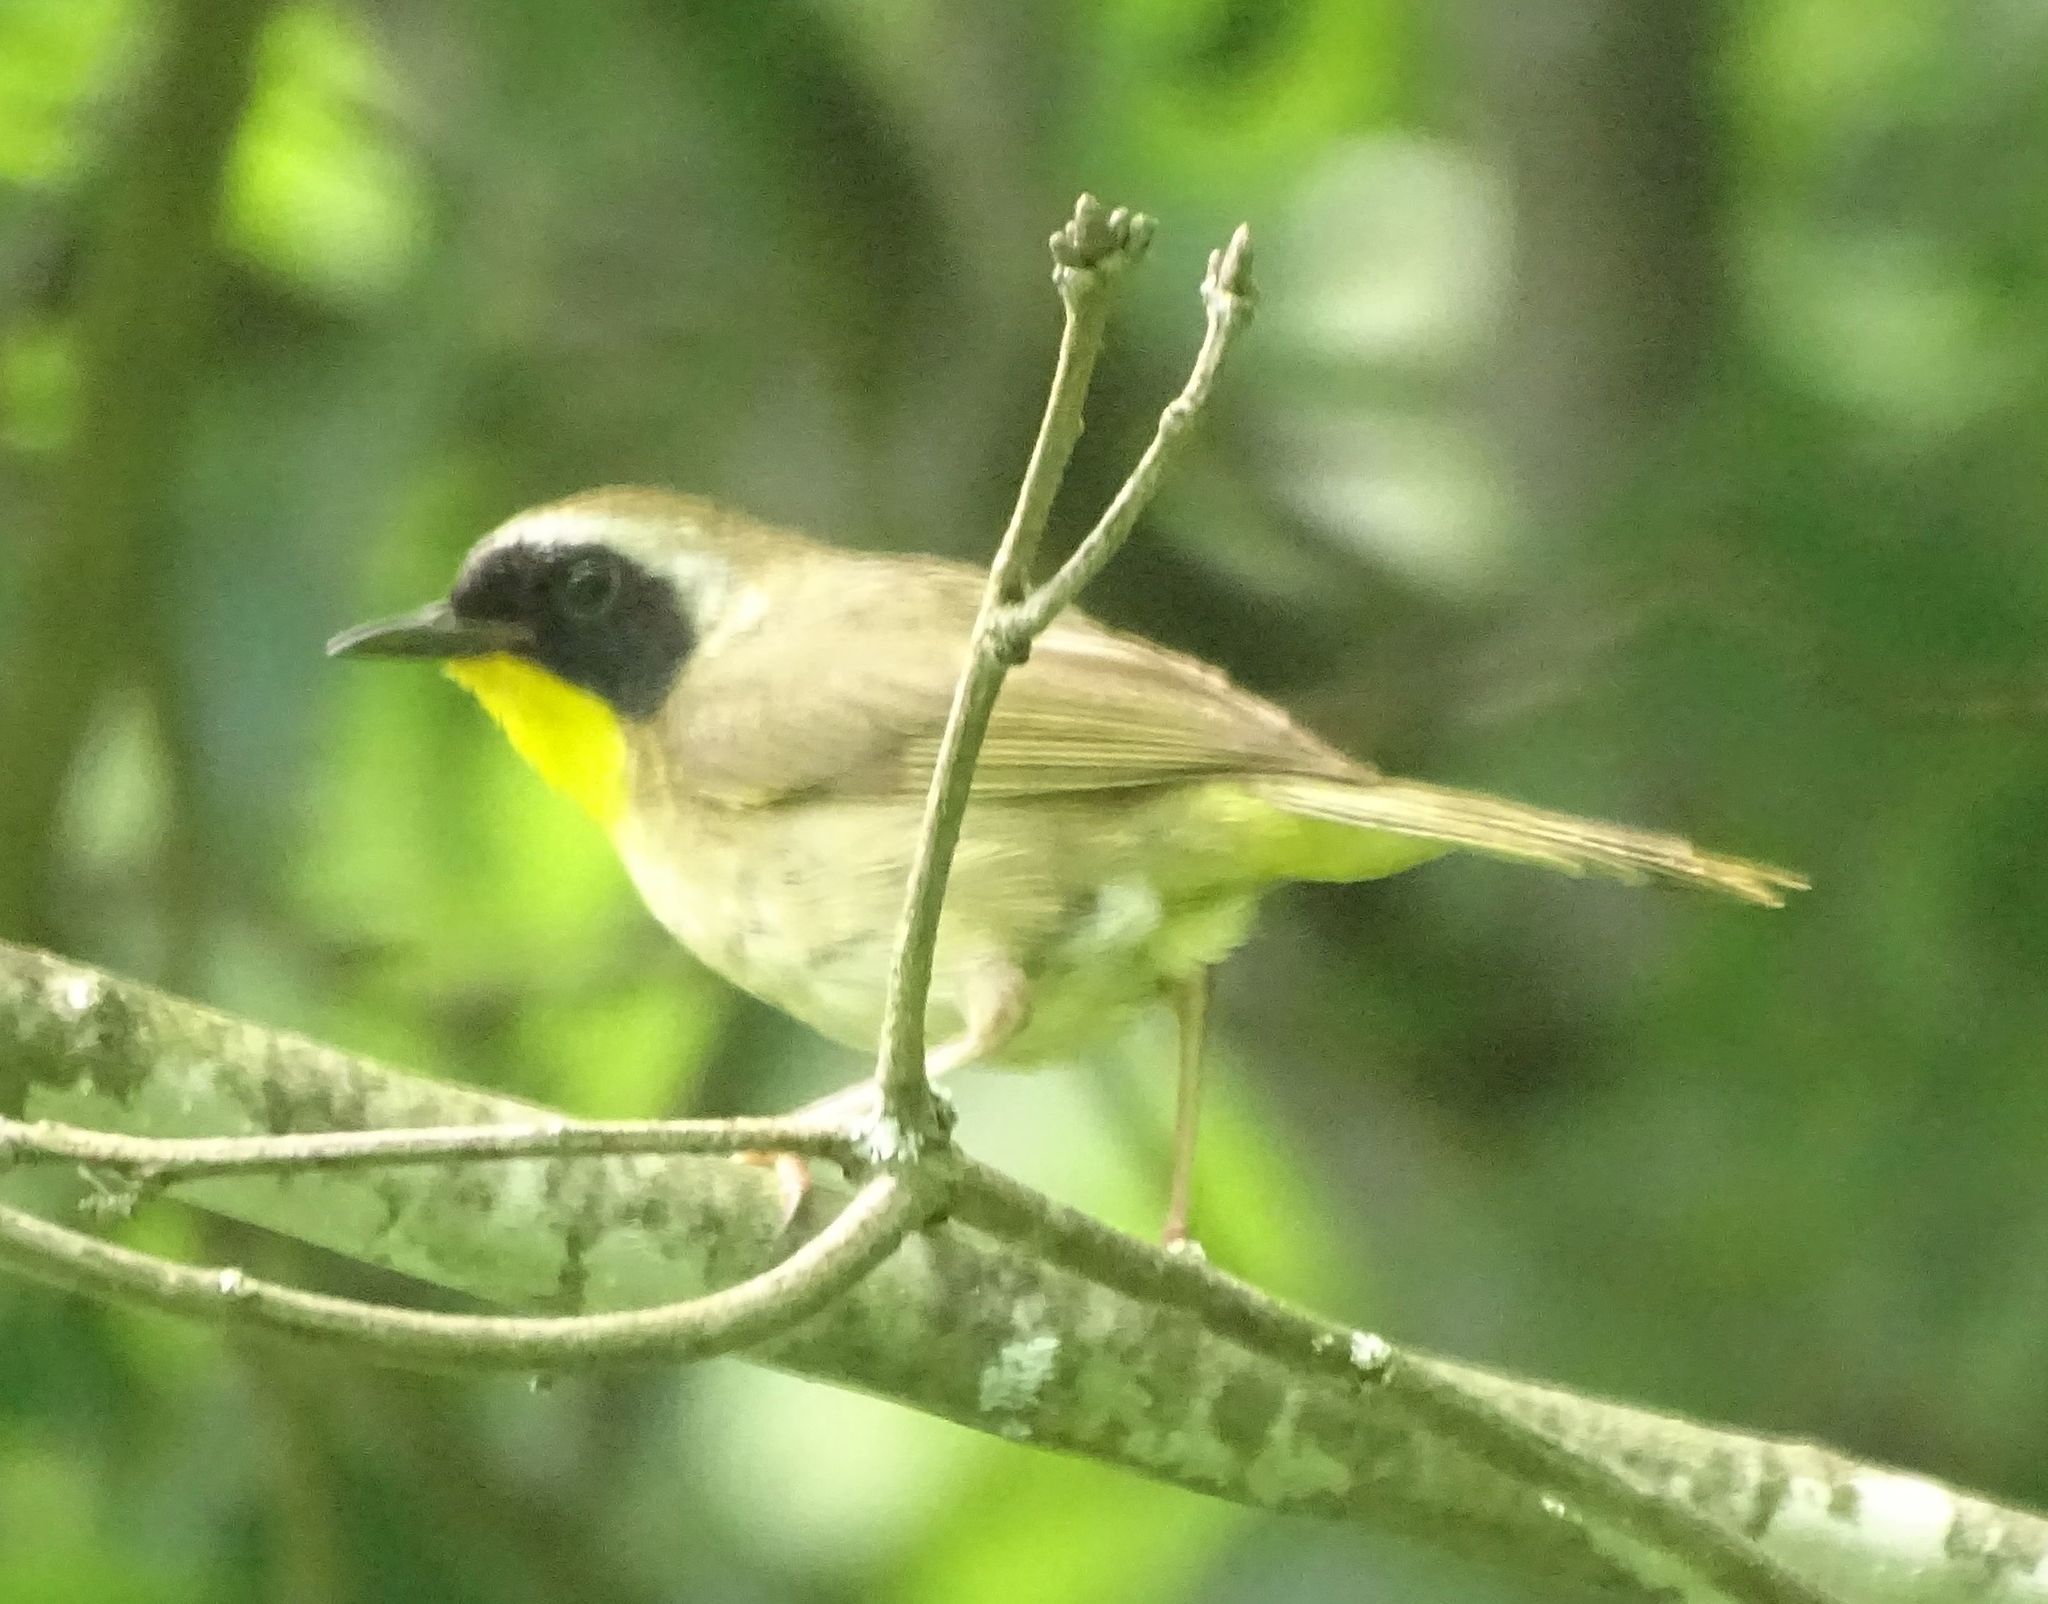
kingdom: Animalia
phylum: Chordata
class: Aves
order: Passeriformes
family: Parulidae
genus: Geothlypis
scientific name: Geothlypis trichas
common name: Common yellowthroat
